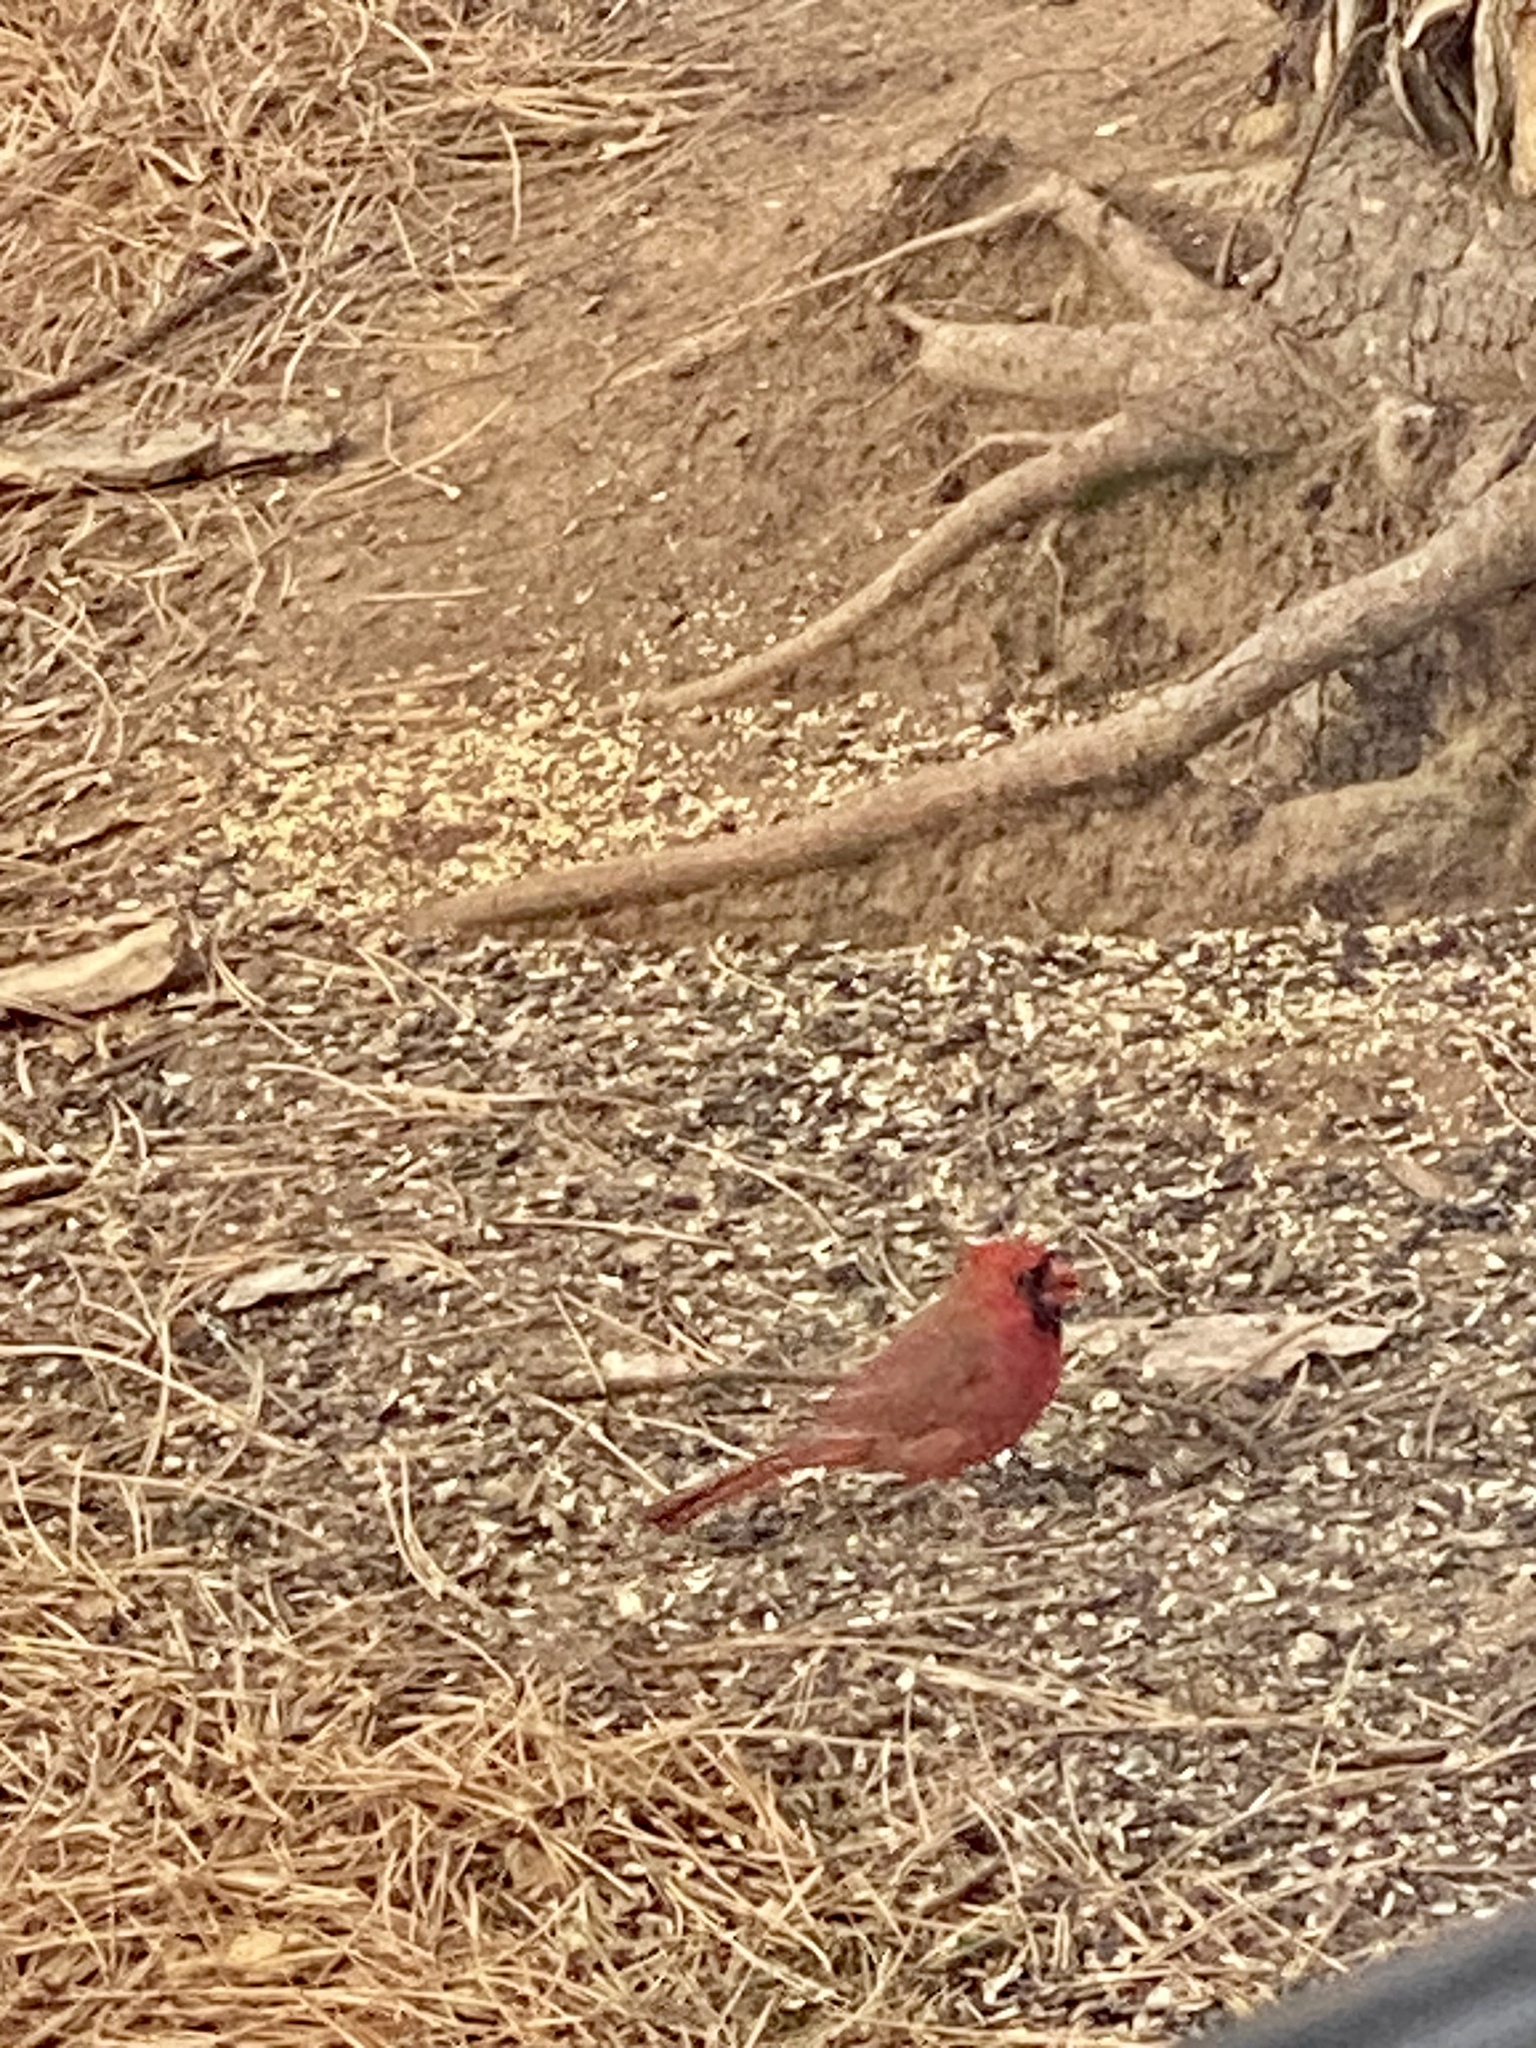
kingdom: Animalia
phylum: Chordata
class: Aves
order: Passeriformes
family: Cardinalidae
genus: Cardinalis
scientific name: Cardinalis cardinalis
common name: Northern cardinal
